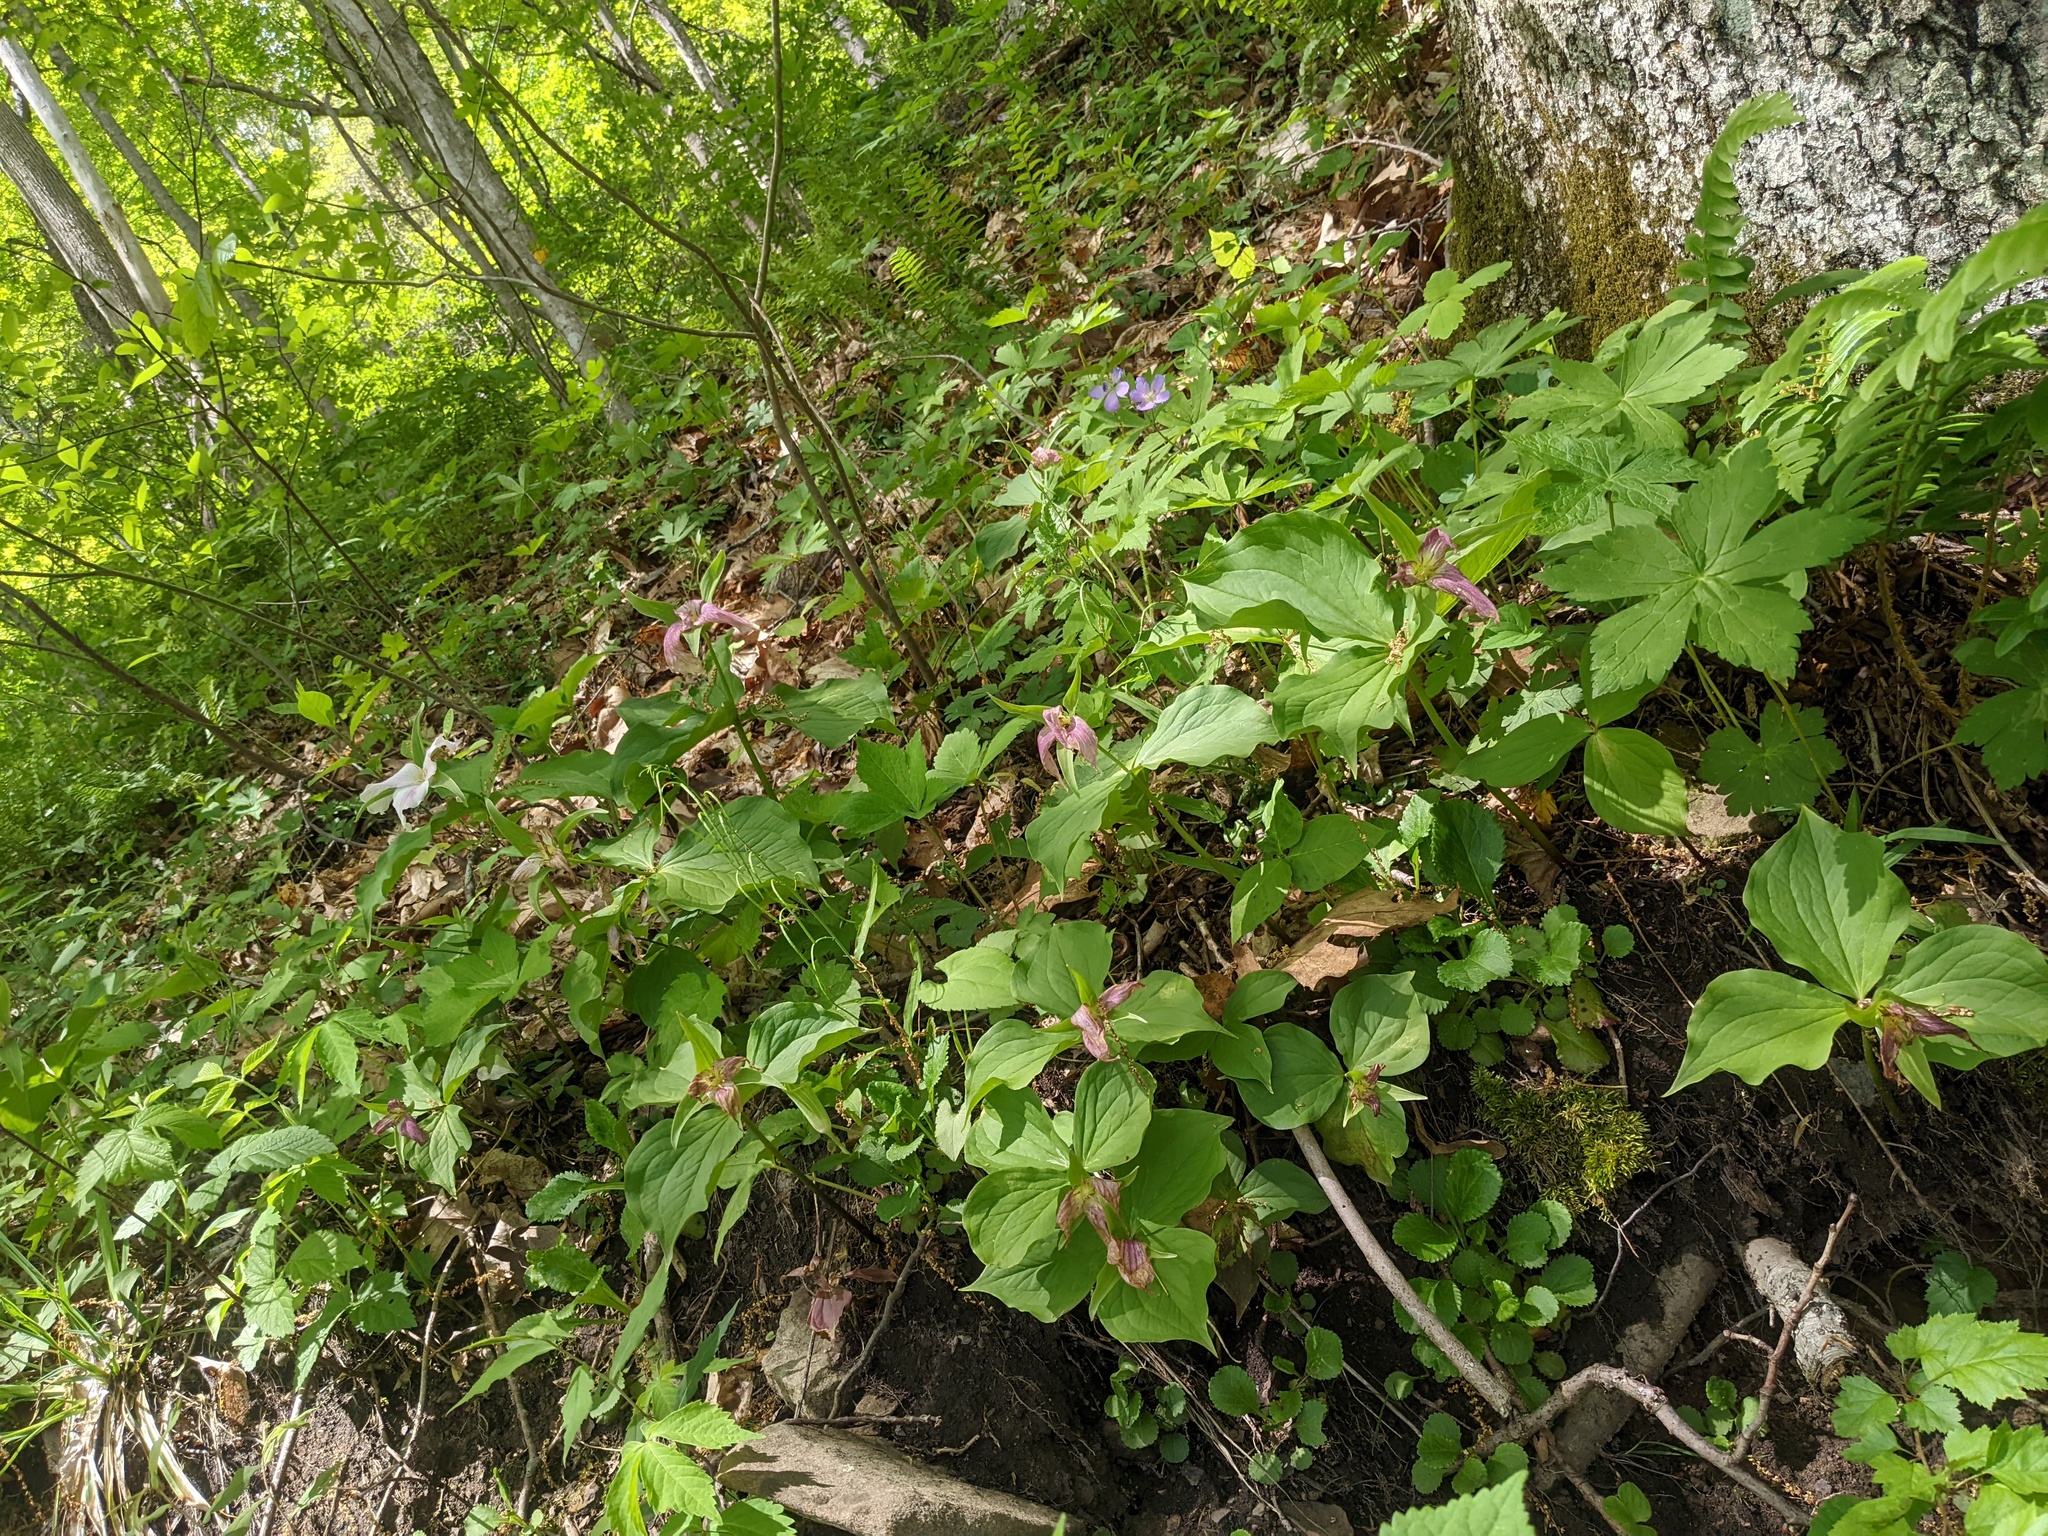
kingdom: Plantae
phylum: Tracheophyta
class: Liliopsida
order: Liliales
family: Melanthiaceae
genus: Trillium
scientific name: Trillium grandiflorum
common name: Great white trillium
